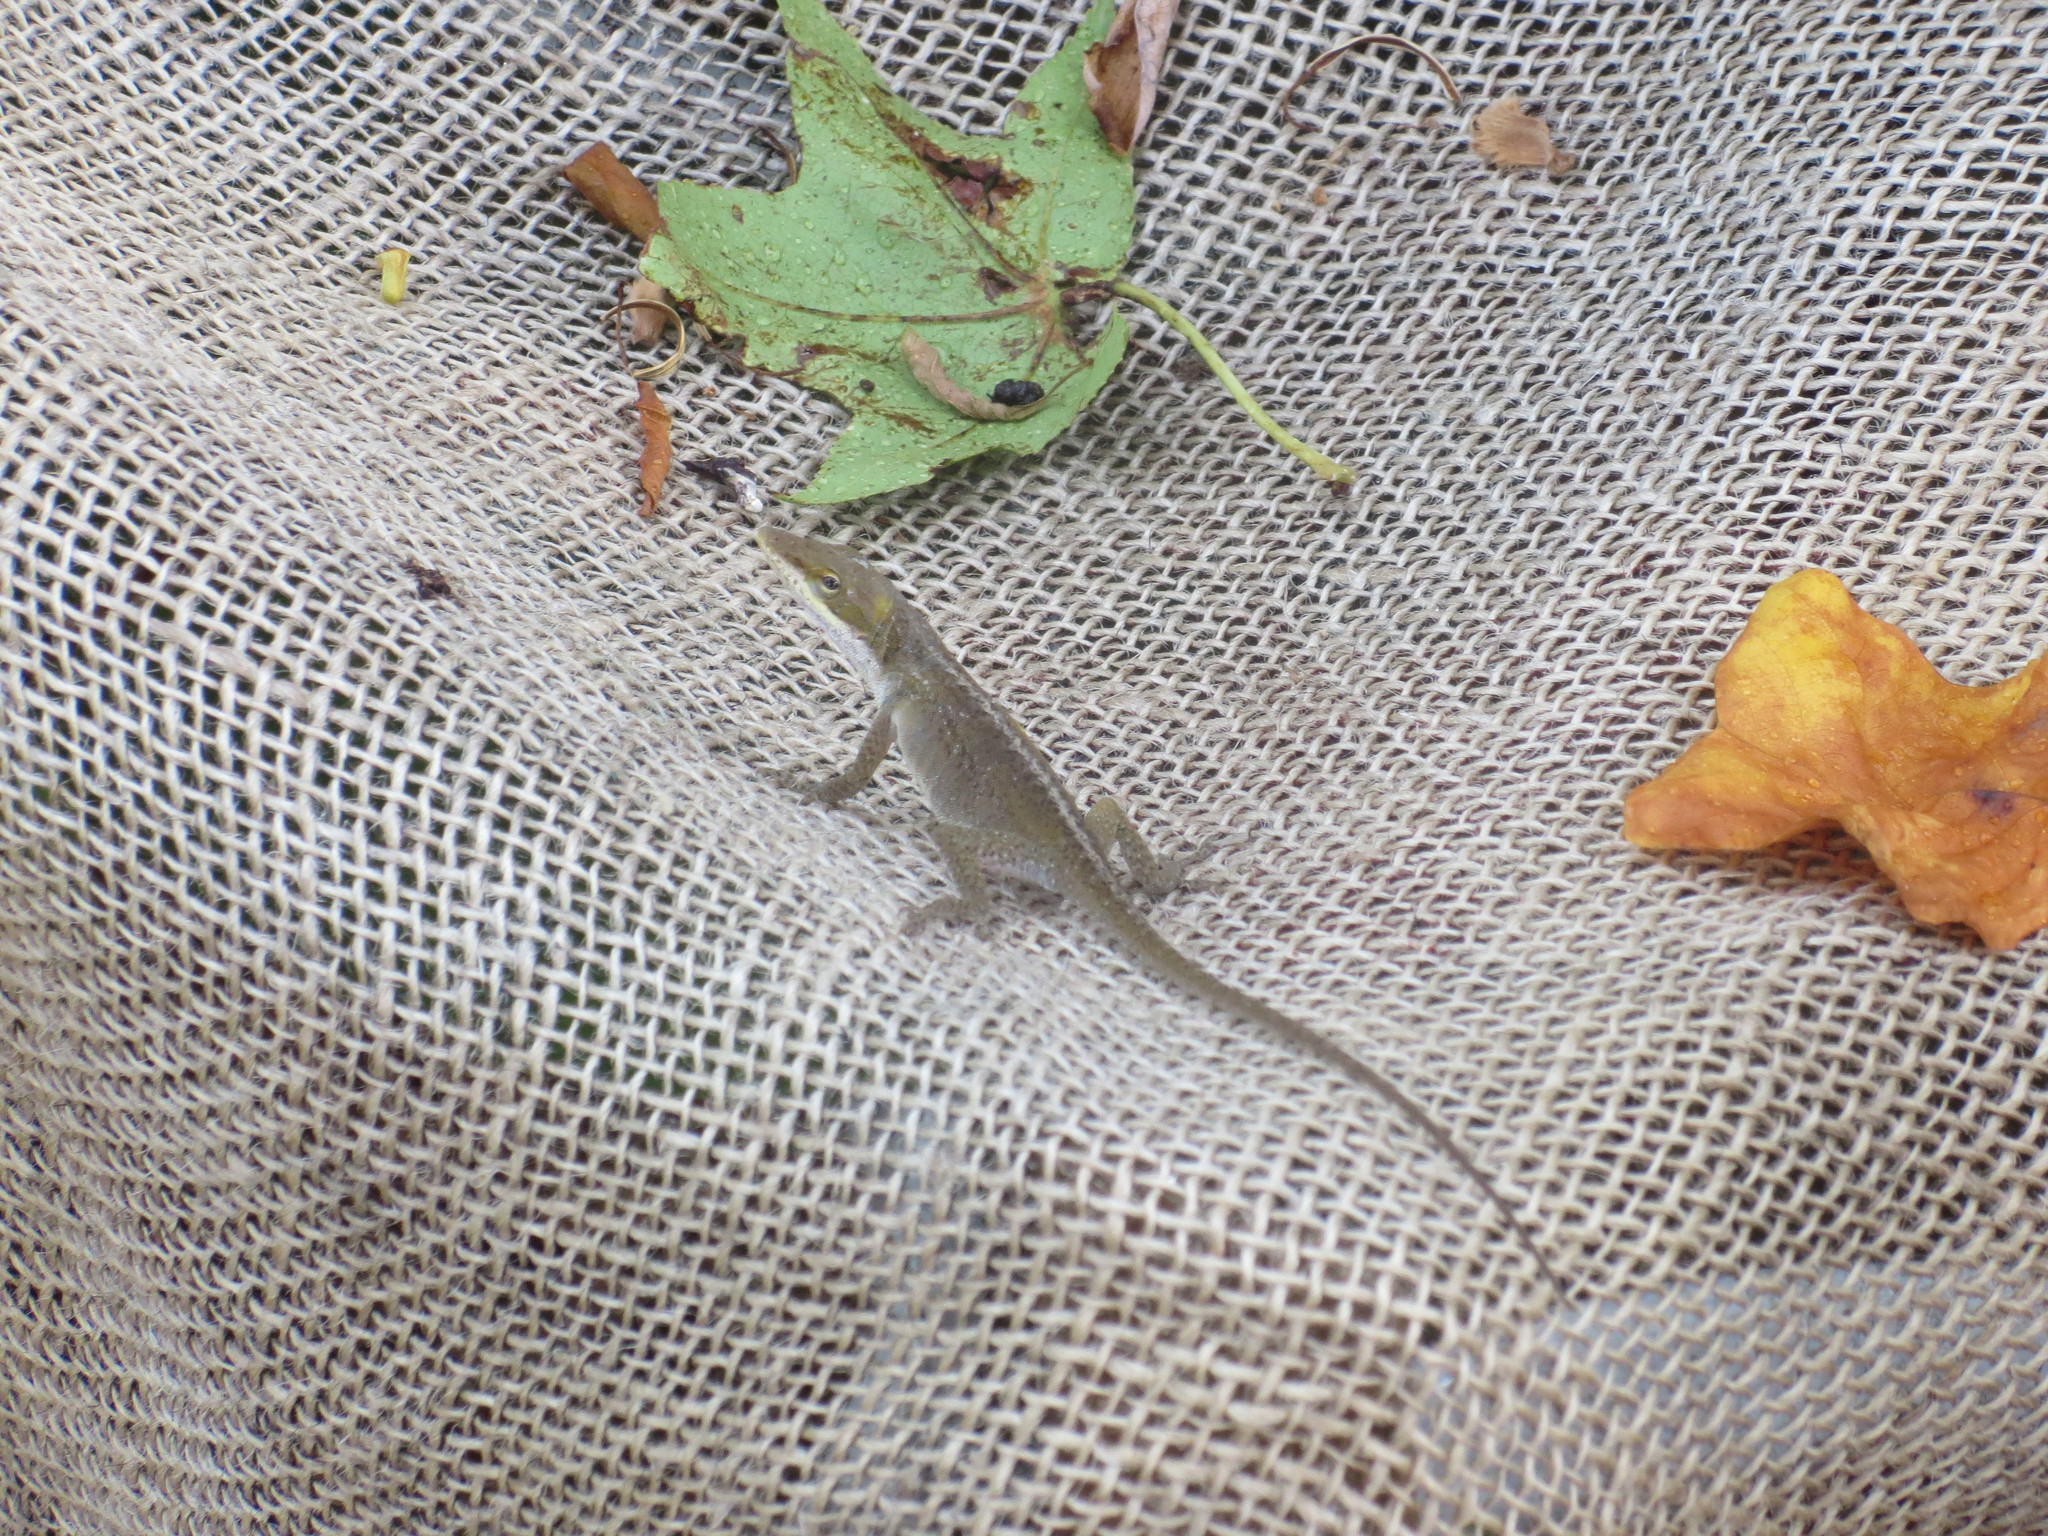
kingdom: Animalia
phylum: Chordata
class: Squamata
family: Dactyloidae
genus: Anolis
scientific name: Anolis carolinensis
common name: Green anole
